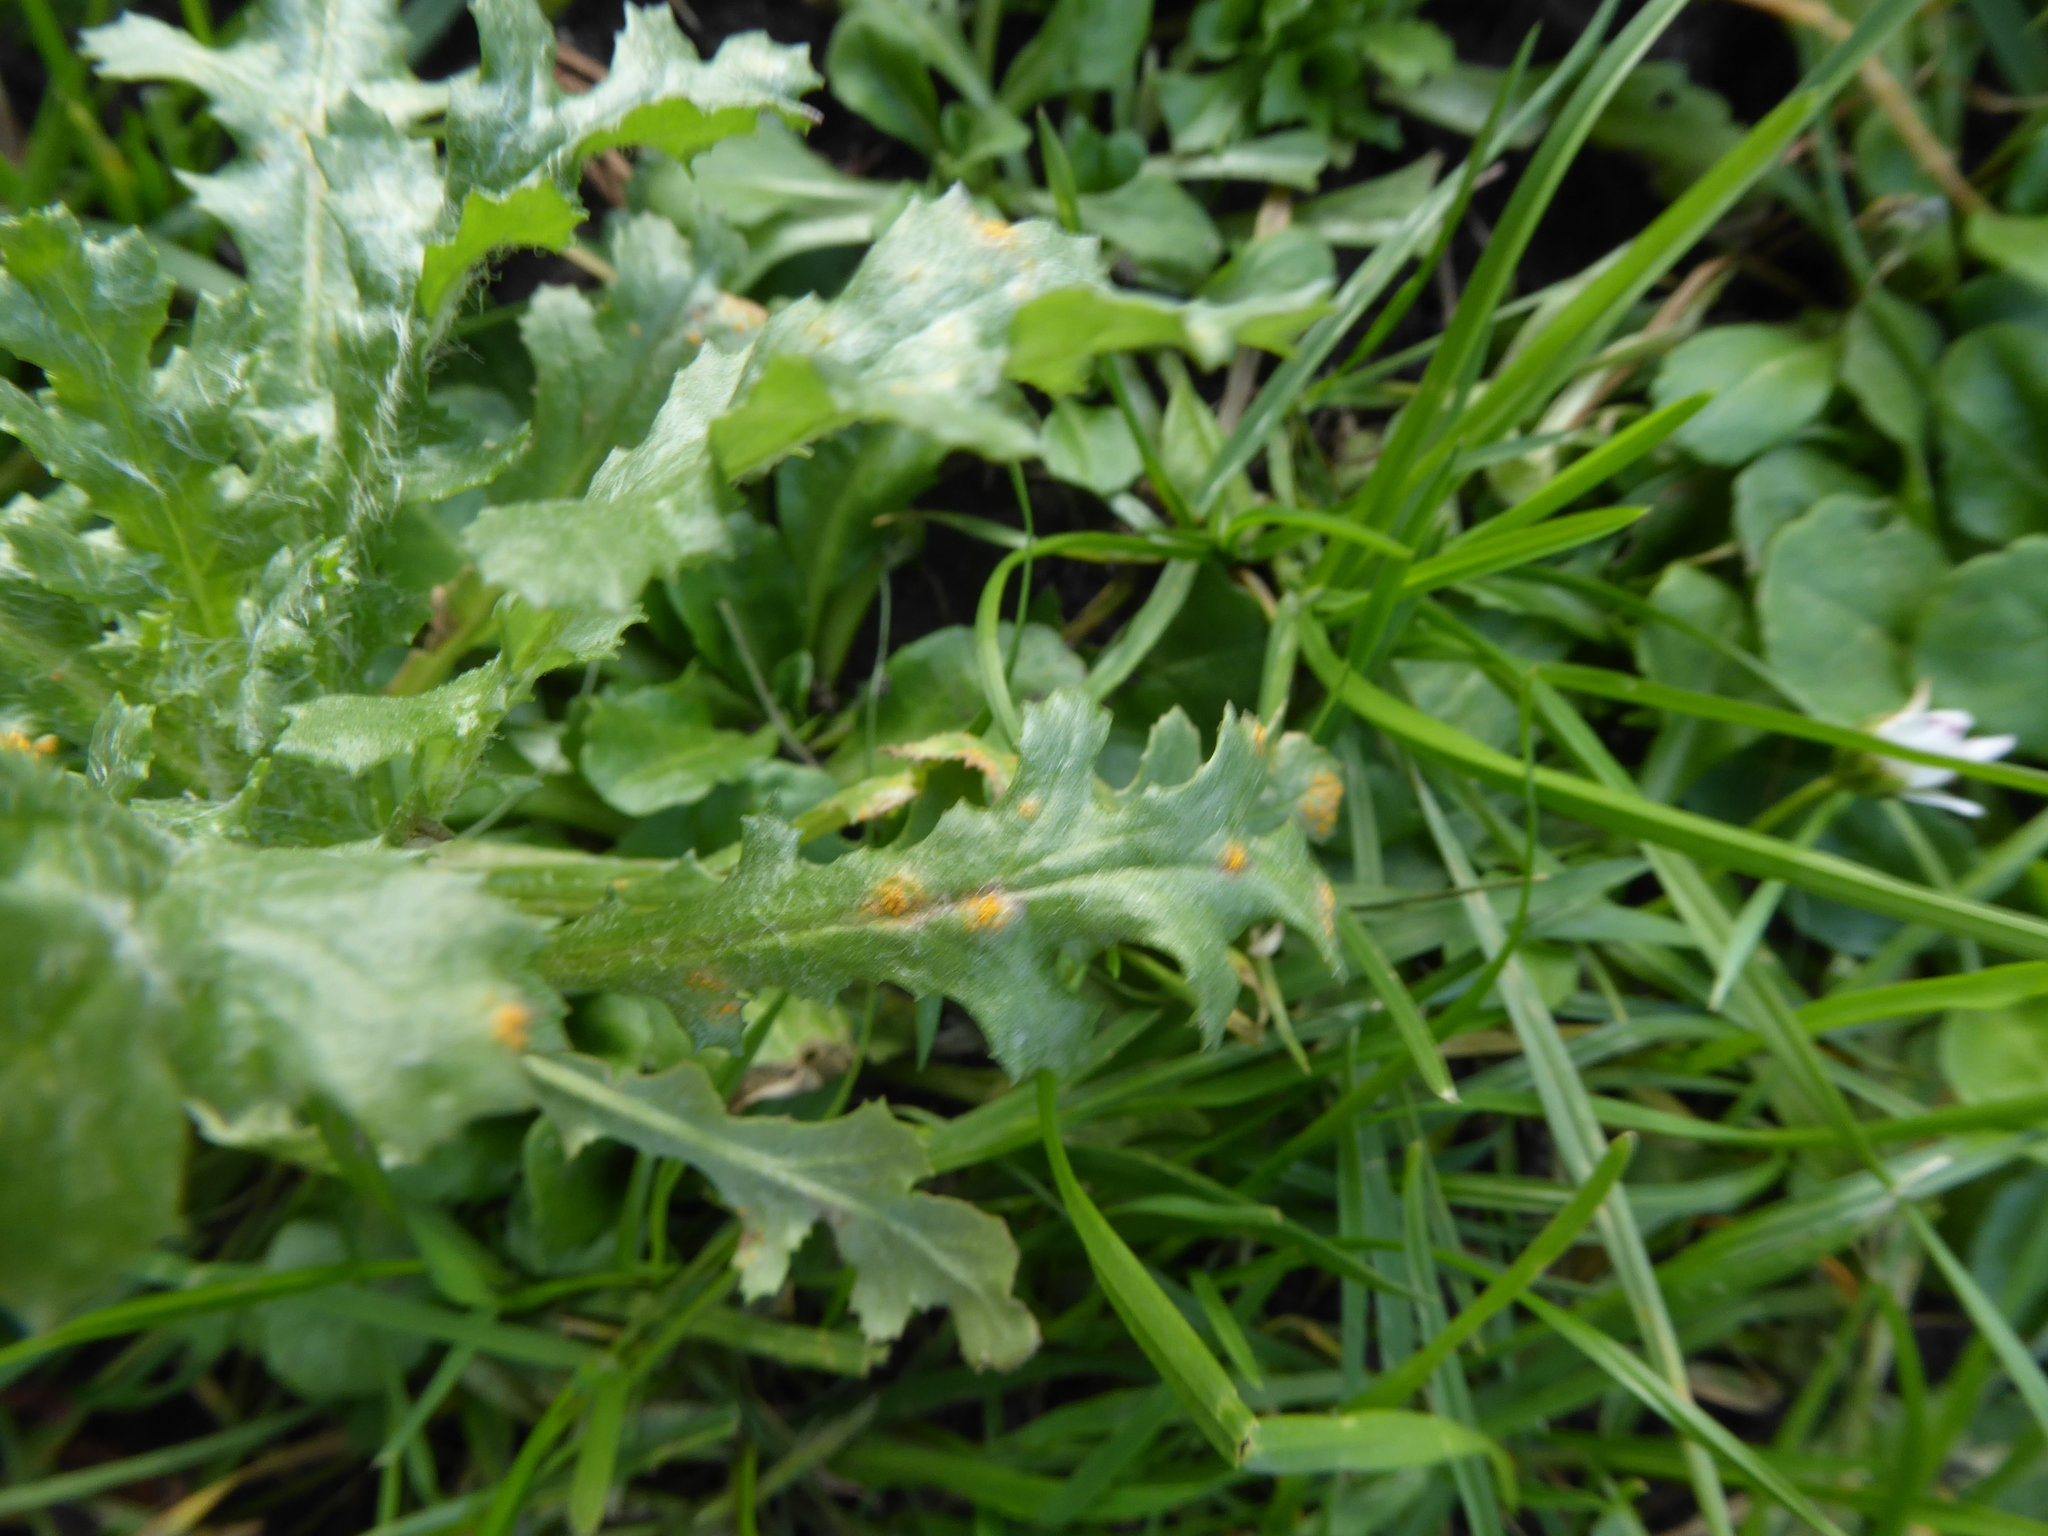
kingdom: Fungi
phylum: Basidiomycota
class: Pucciniomycetes
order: Pucciniales
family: Pucciniaceae
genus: Puccinia
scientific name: Puccinia lagenophorae
